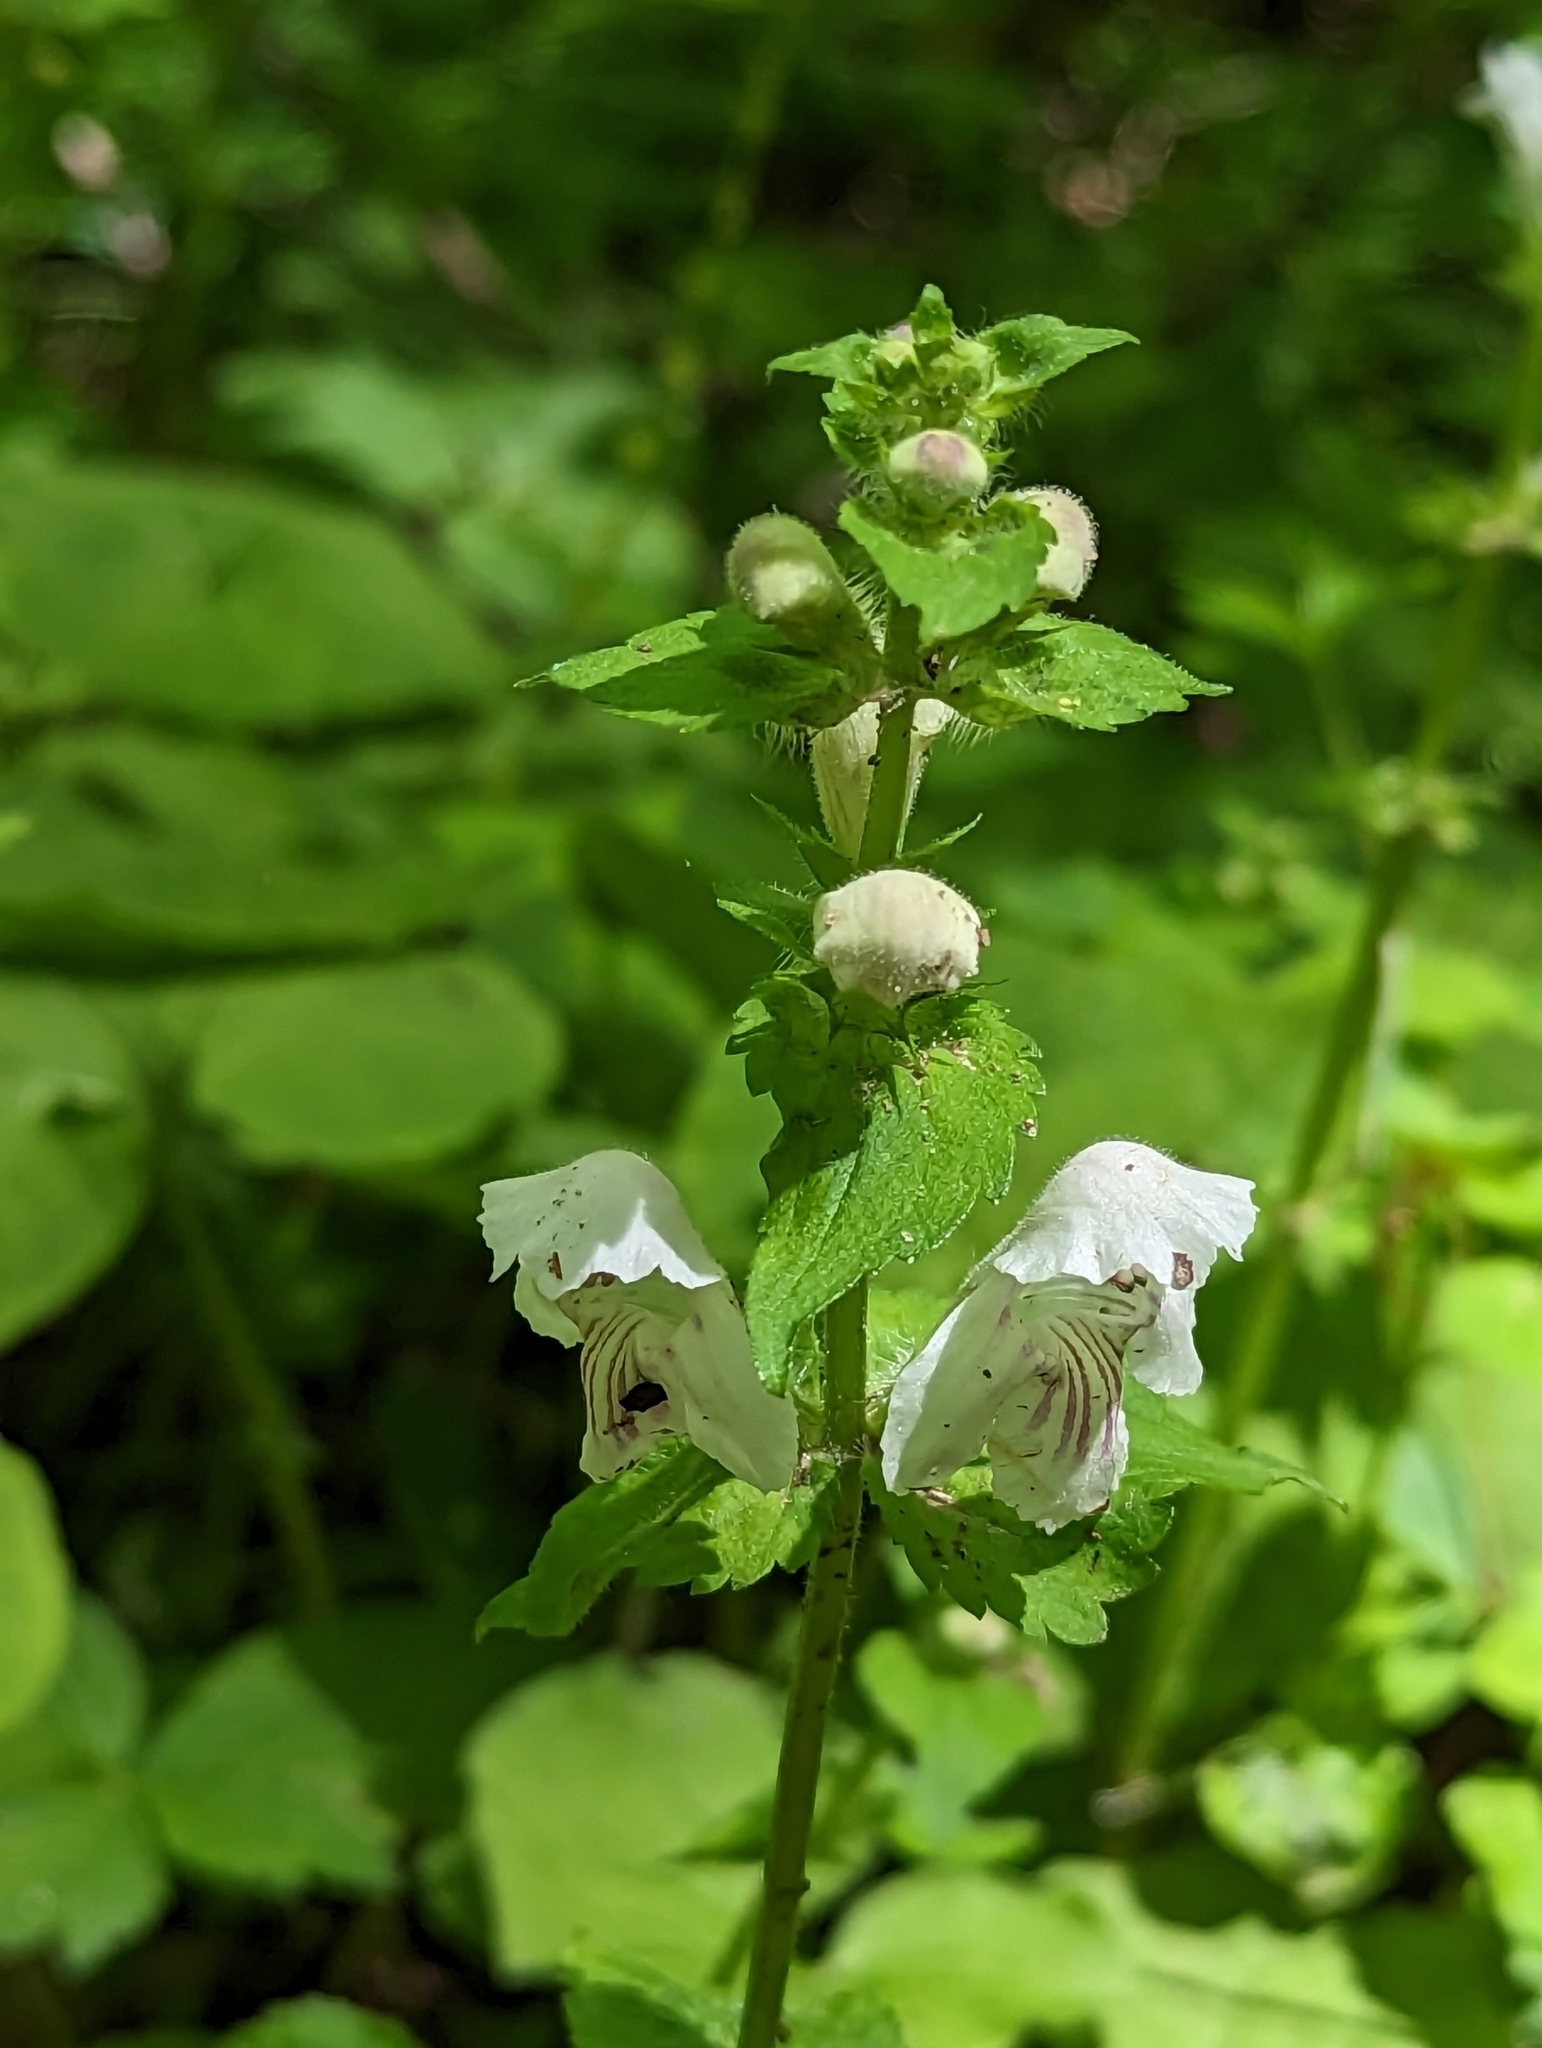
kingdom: Plantae
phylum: Tracheophyta
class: Magnoliopsida
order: Lamiales
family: Lamiaceae
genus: Synandra
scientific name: Synandra hispidula
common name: Synandra
